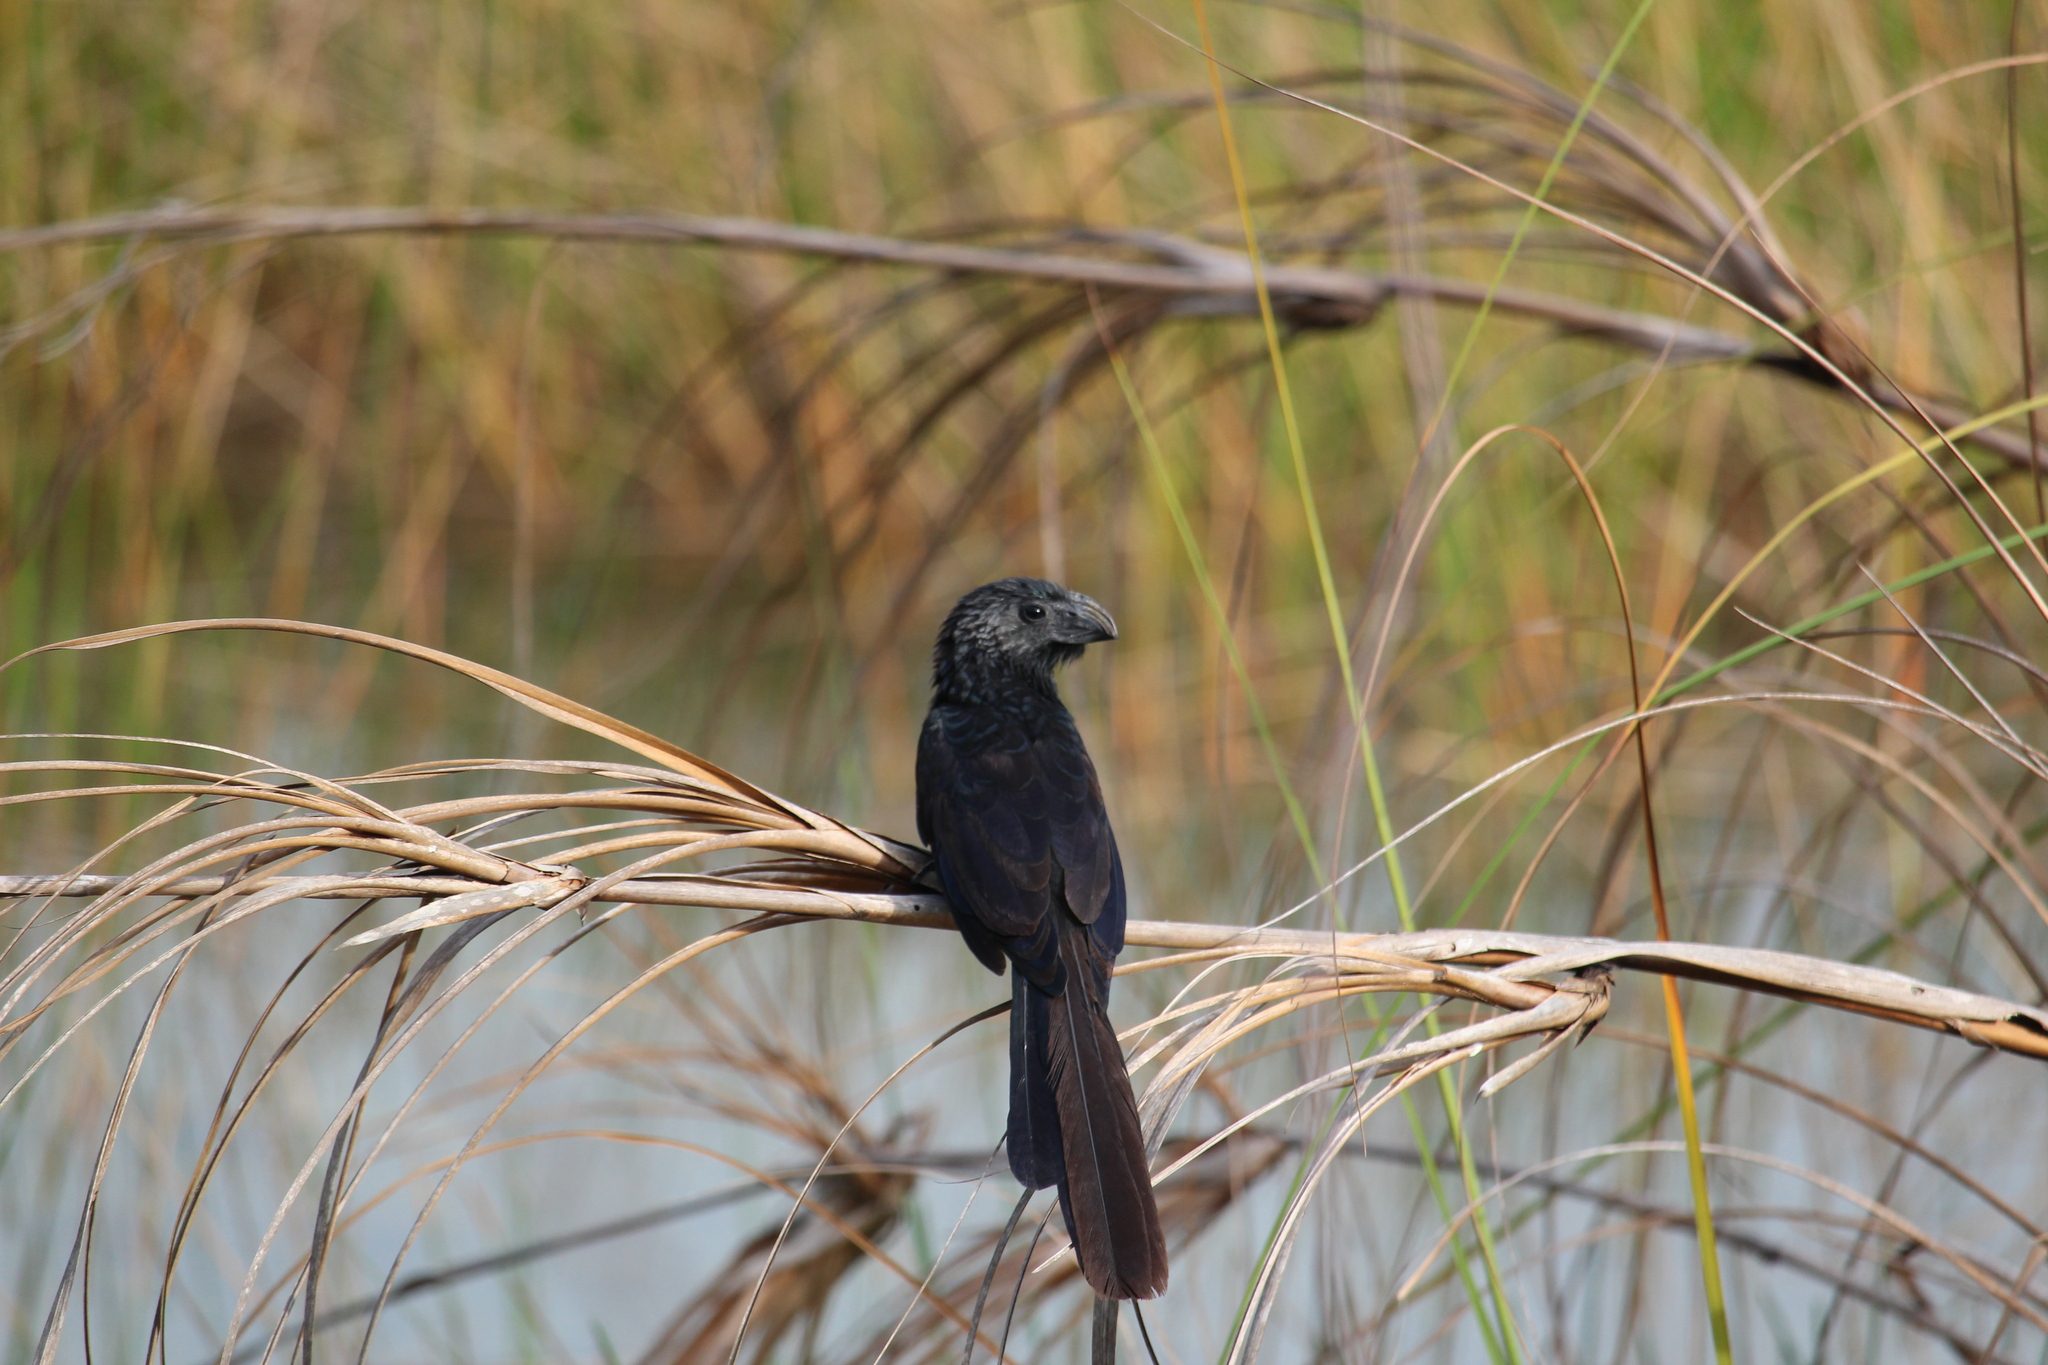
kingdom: Animalia
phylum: Chordata
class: Aves
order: Cuculiformes
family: Cuculidae
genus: Crotophaga
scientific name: Crotophaga sulcirostris
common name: Groove-billed ani
